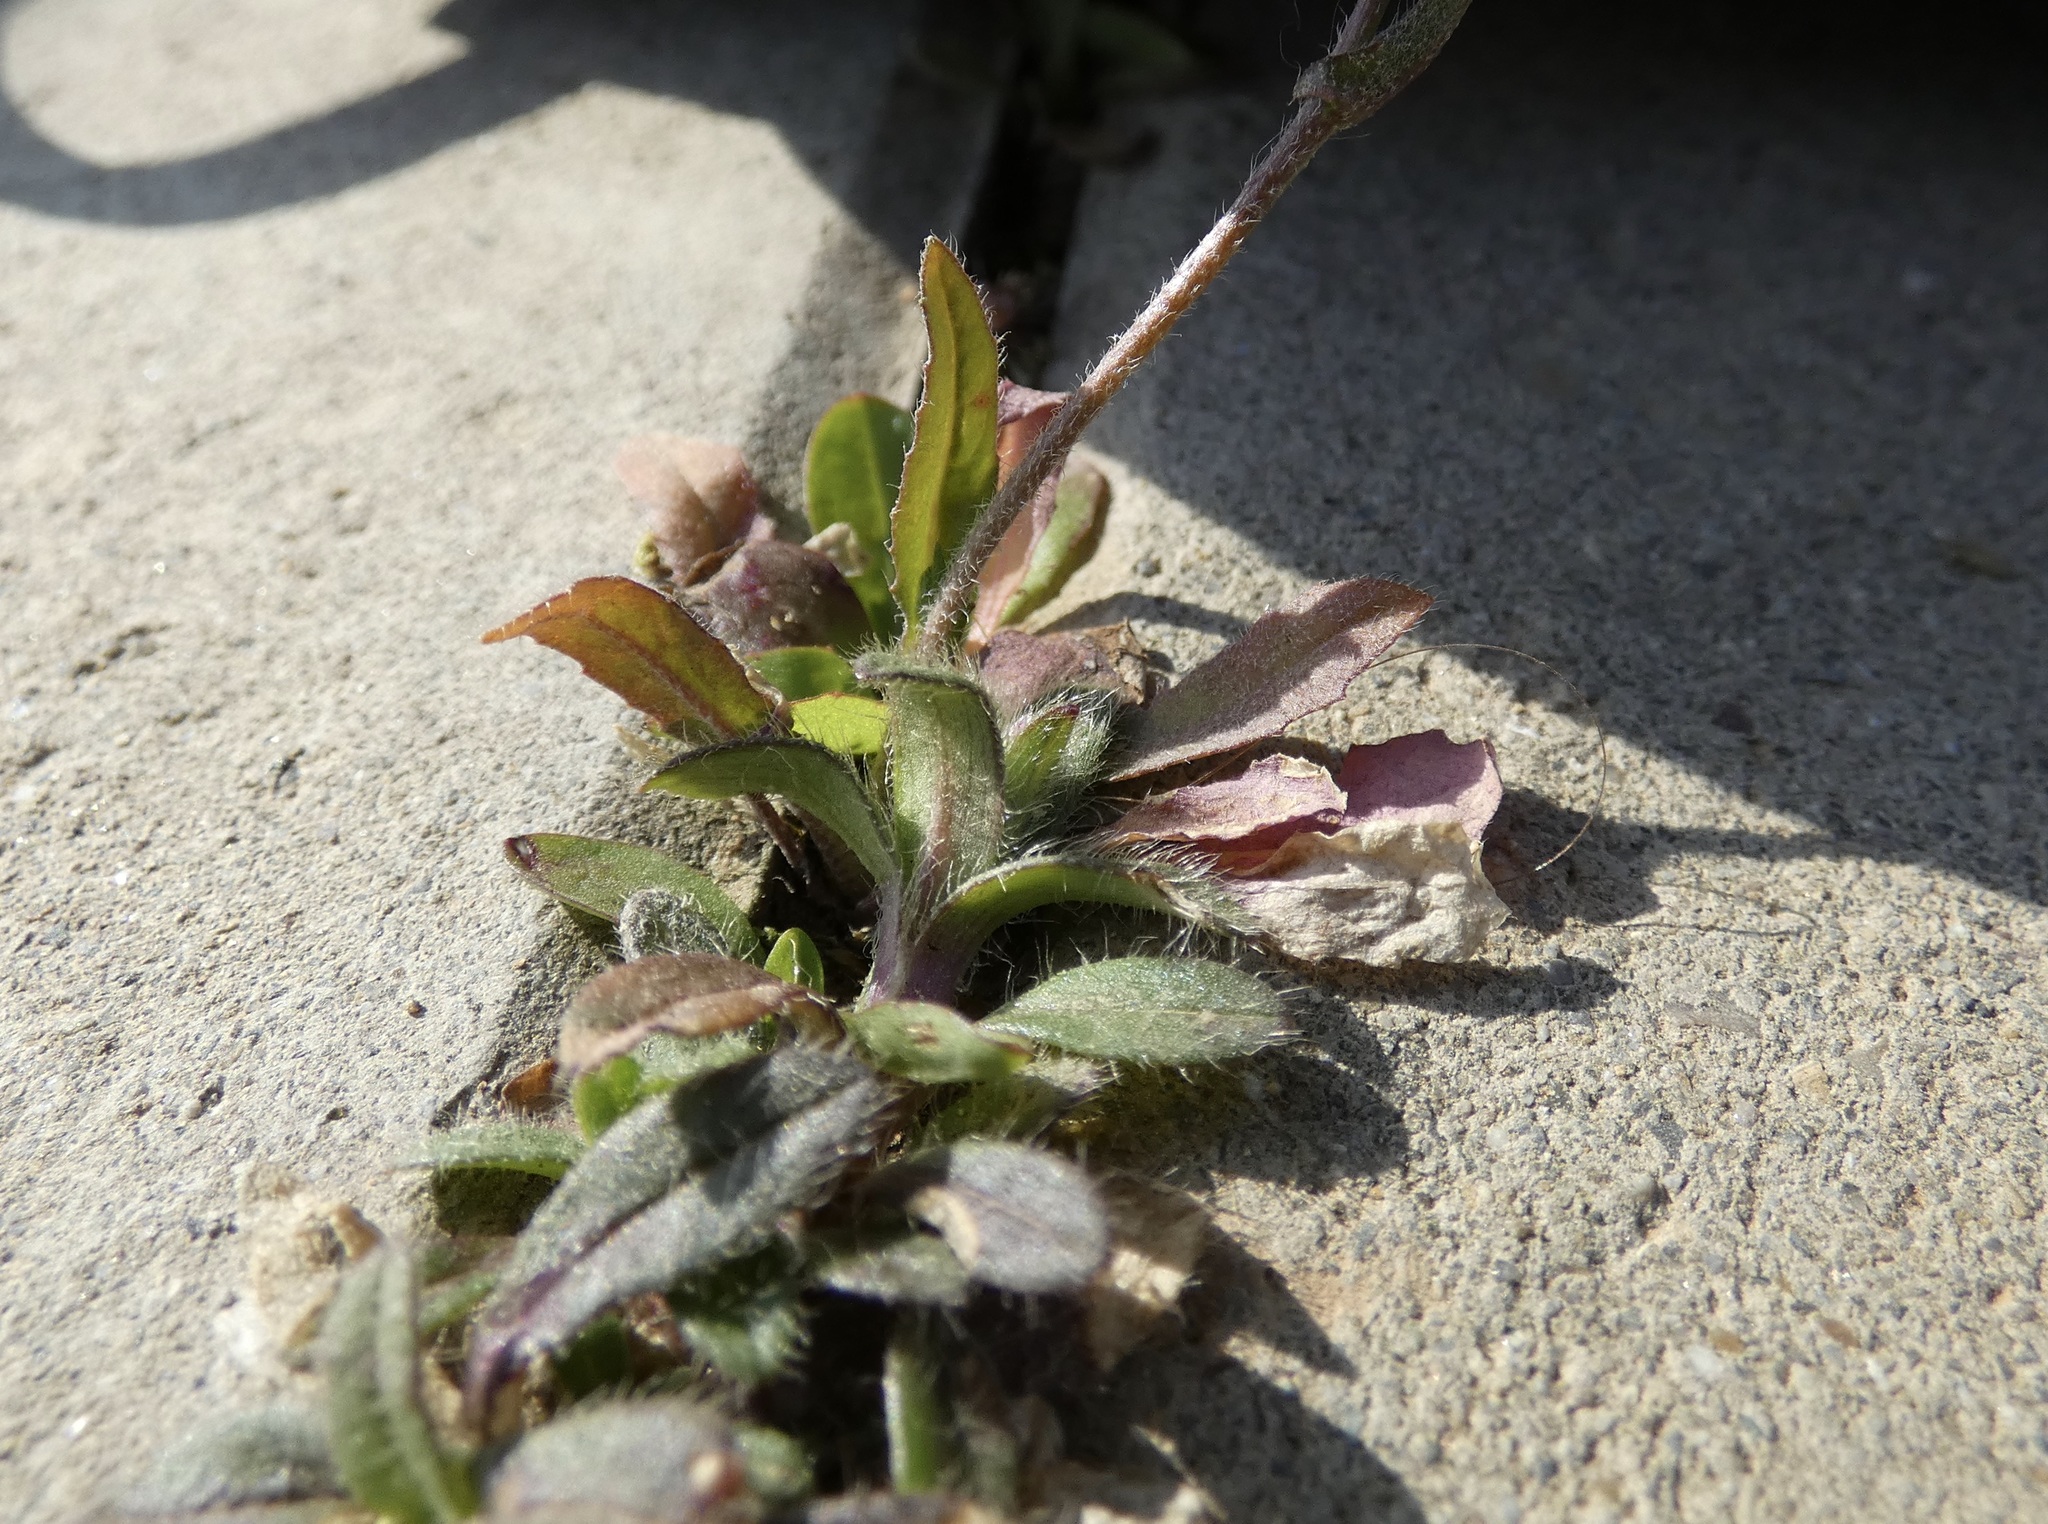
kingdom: Plantae
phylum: Tracheophyta
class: Magnoliopsida
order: Brassicales
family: Brassicaceae
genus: Capsella
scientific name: Capsella bursa-pastoris
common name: Shepherd's purse
